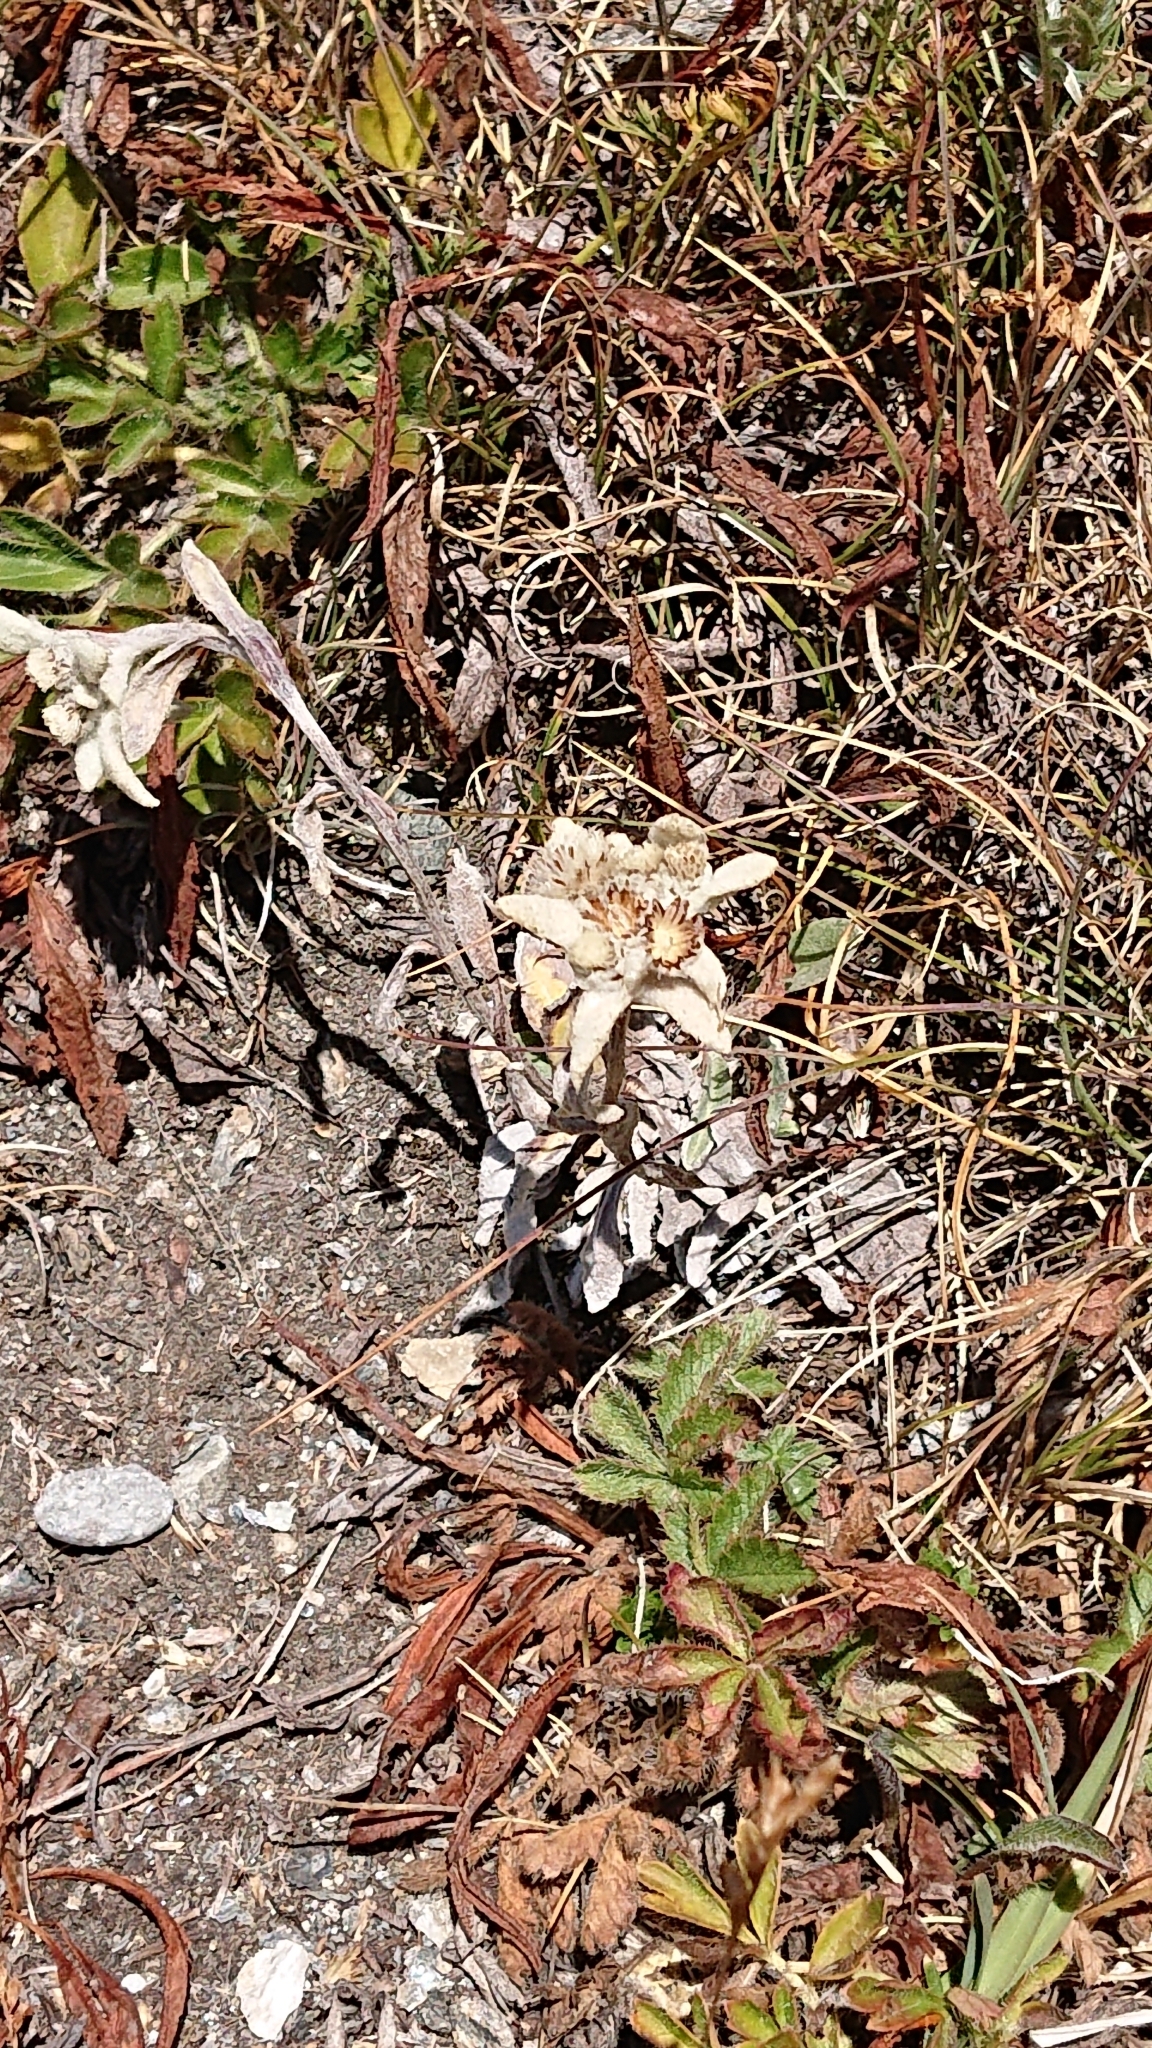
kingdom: Plantae
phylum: Tracheophyta
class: Magnoliopsida
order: Asterales
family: Asteraceae
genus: Leontopodium
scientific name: Leontopodium nivale
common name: Edelweiss
